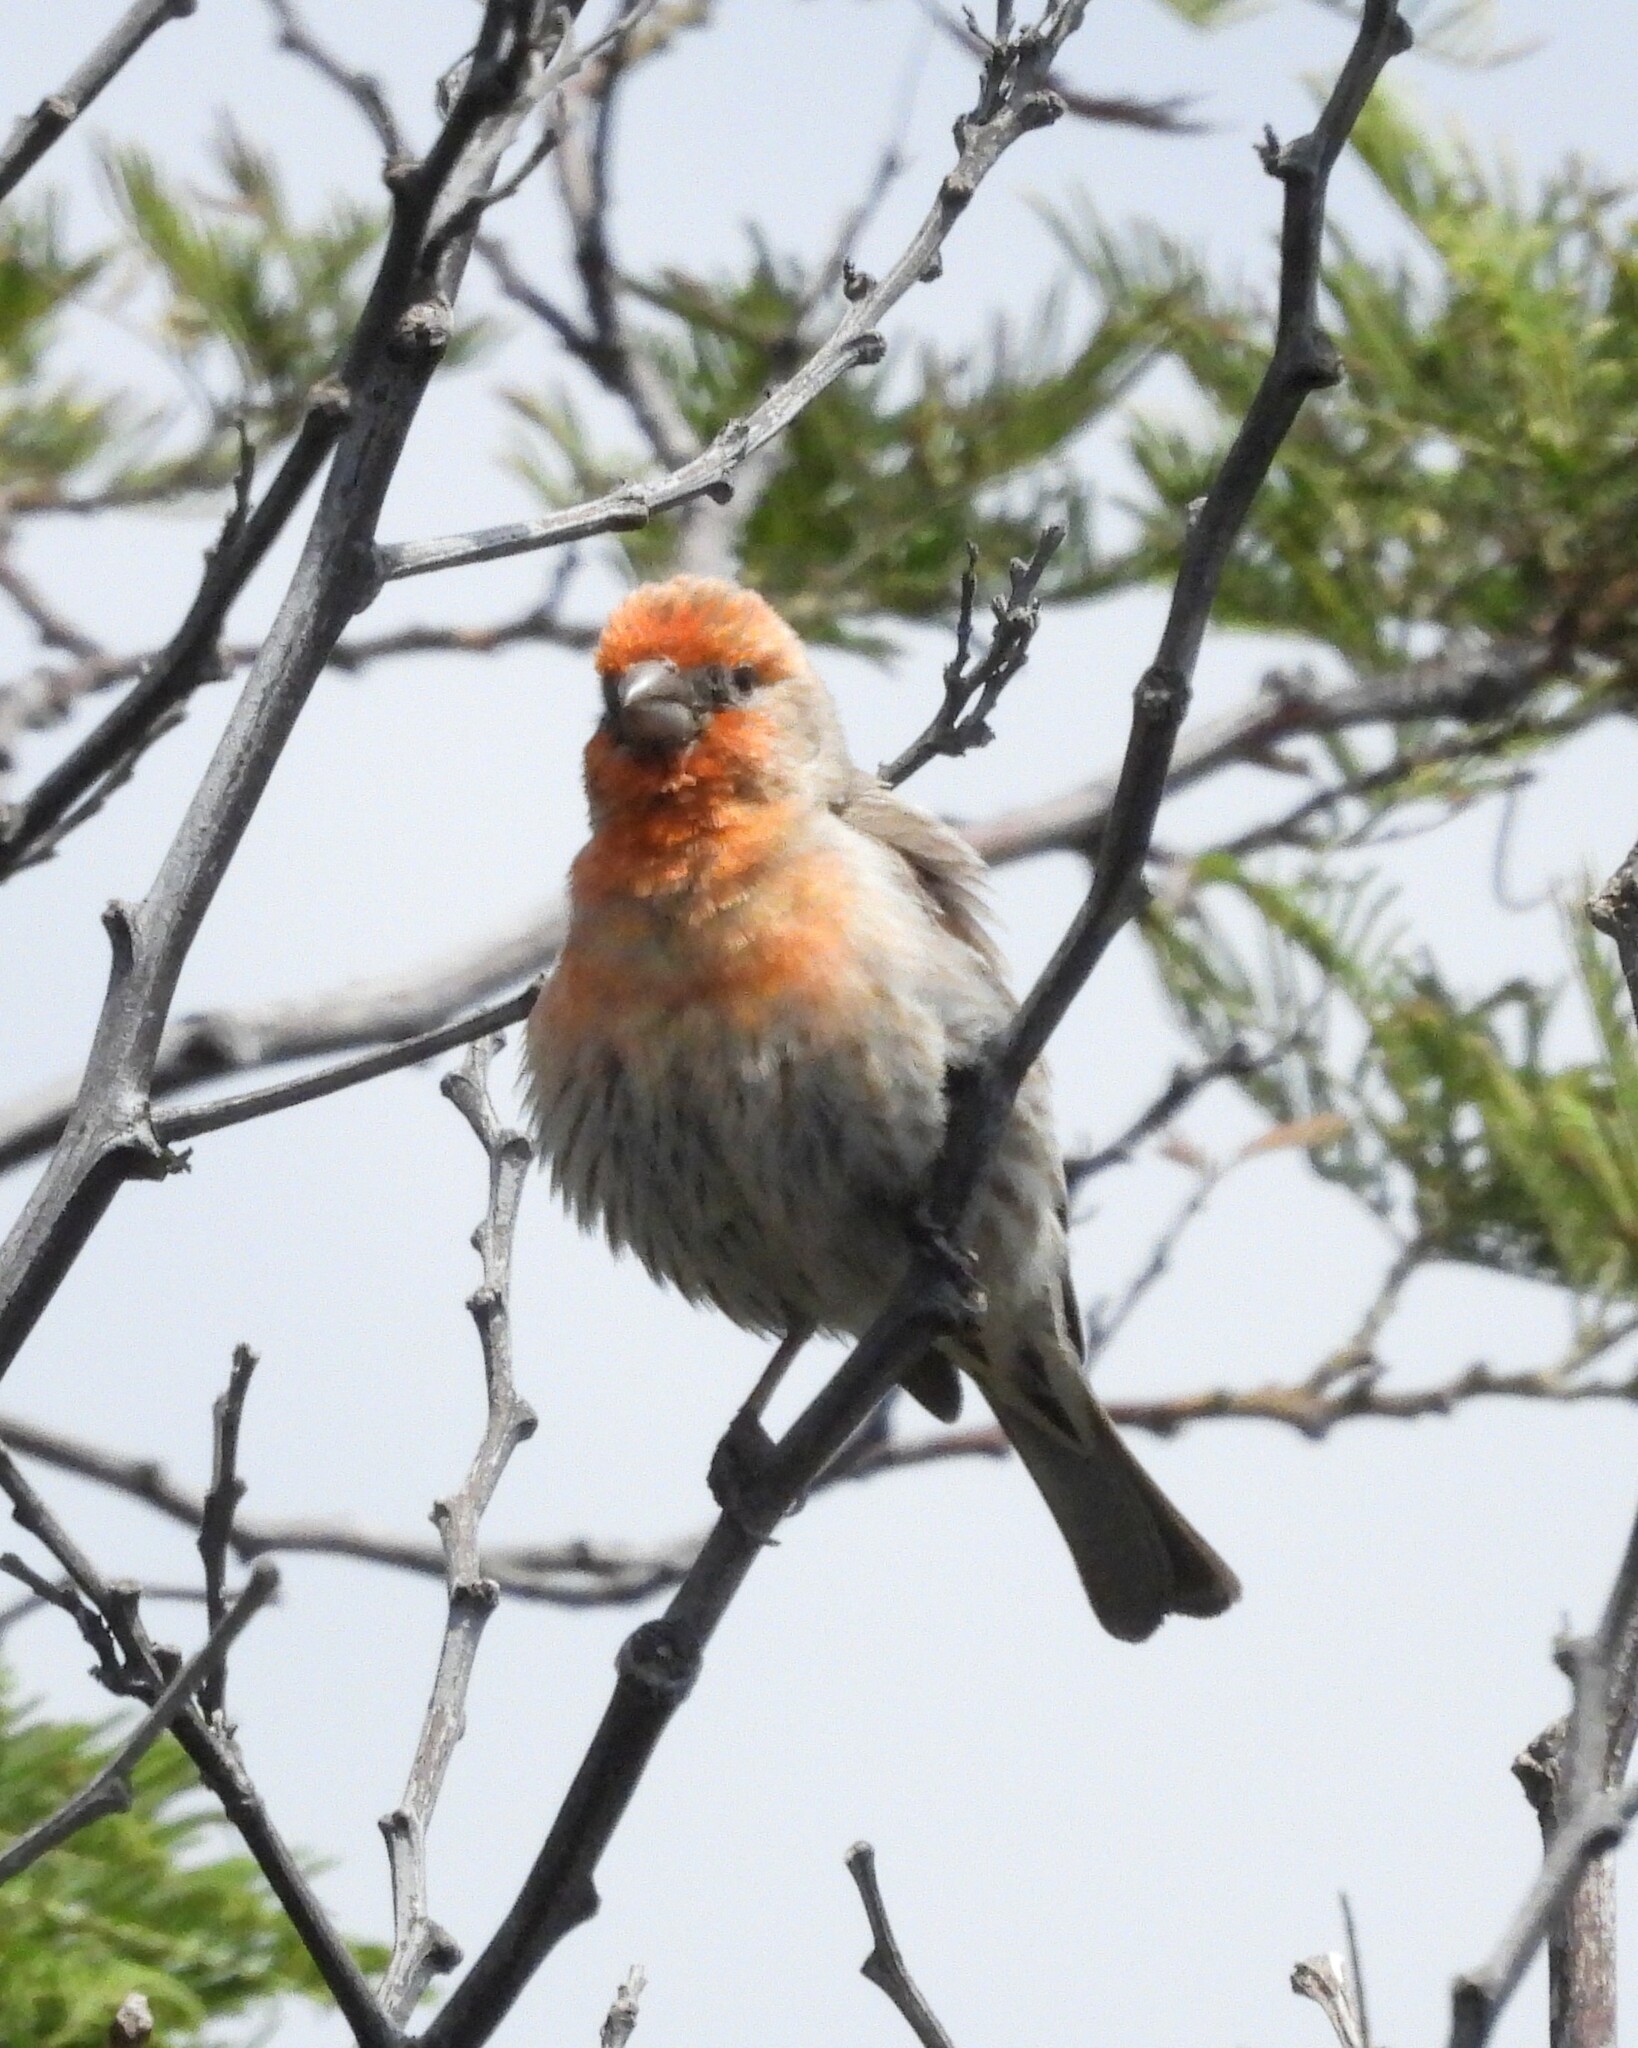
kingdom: Animalia
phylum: Chordata
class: Aves
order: Passeriformes
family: Fringillidae
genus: Haemorhous
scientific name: Haemorhous mexicanus
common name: House finch
